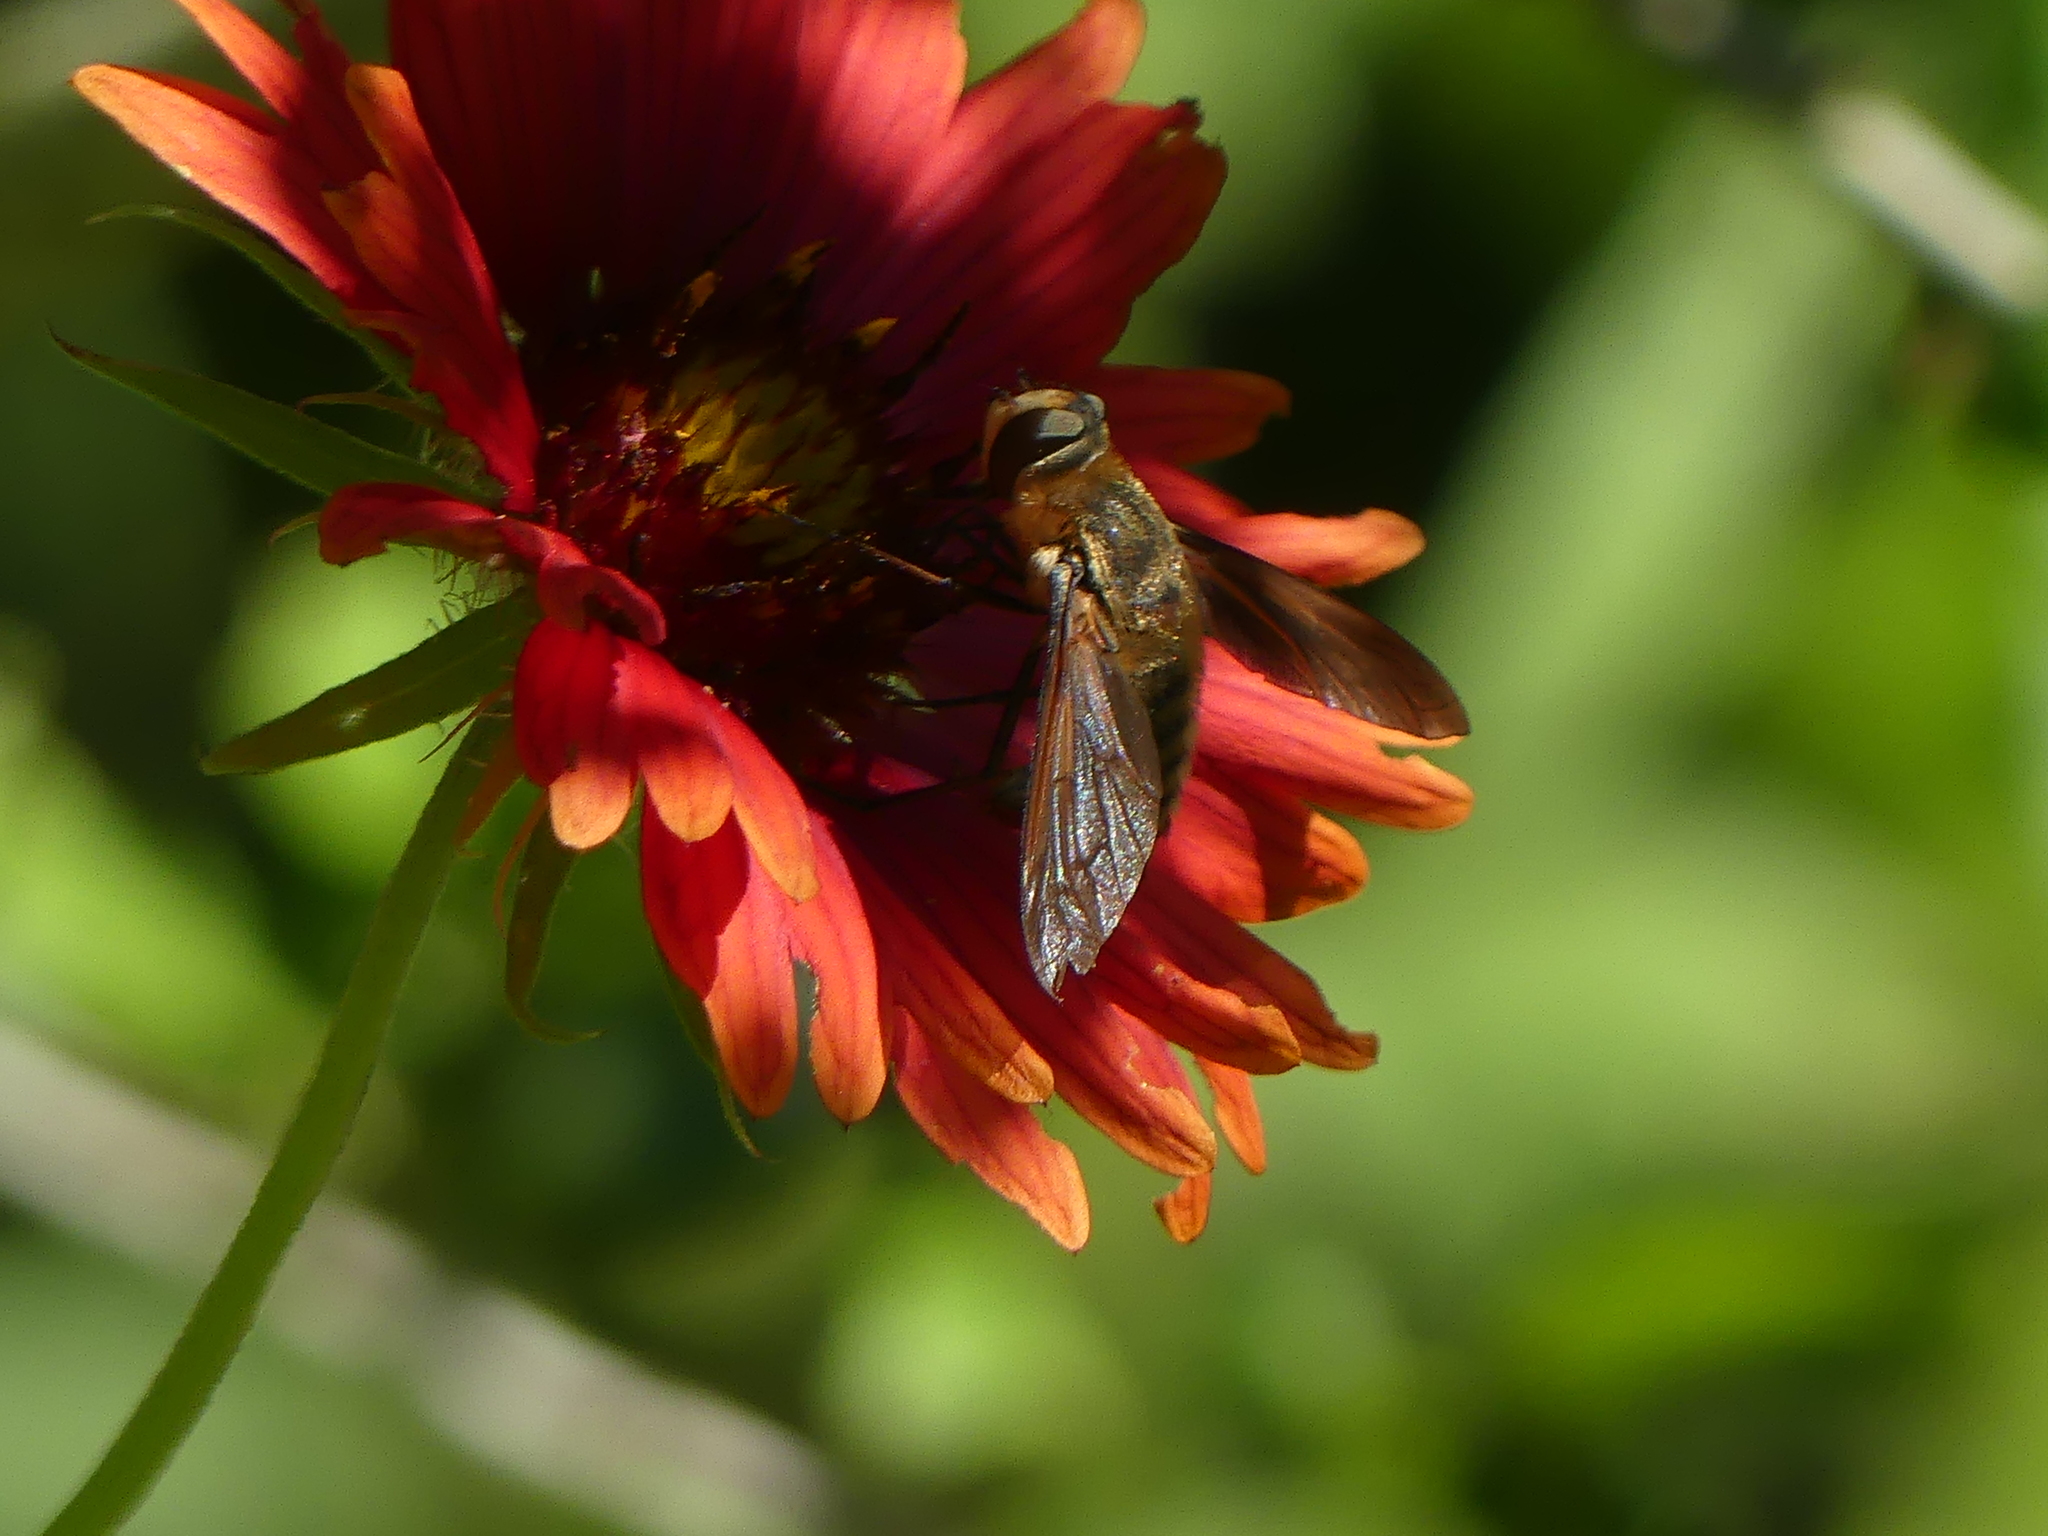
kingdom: Animalia
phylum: Arthropoda
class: Insecta
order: Diptera
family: Bombyliidae
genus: Poecilanthrax
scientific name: Poecilanthrax lucifer
